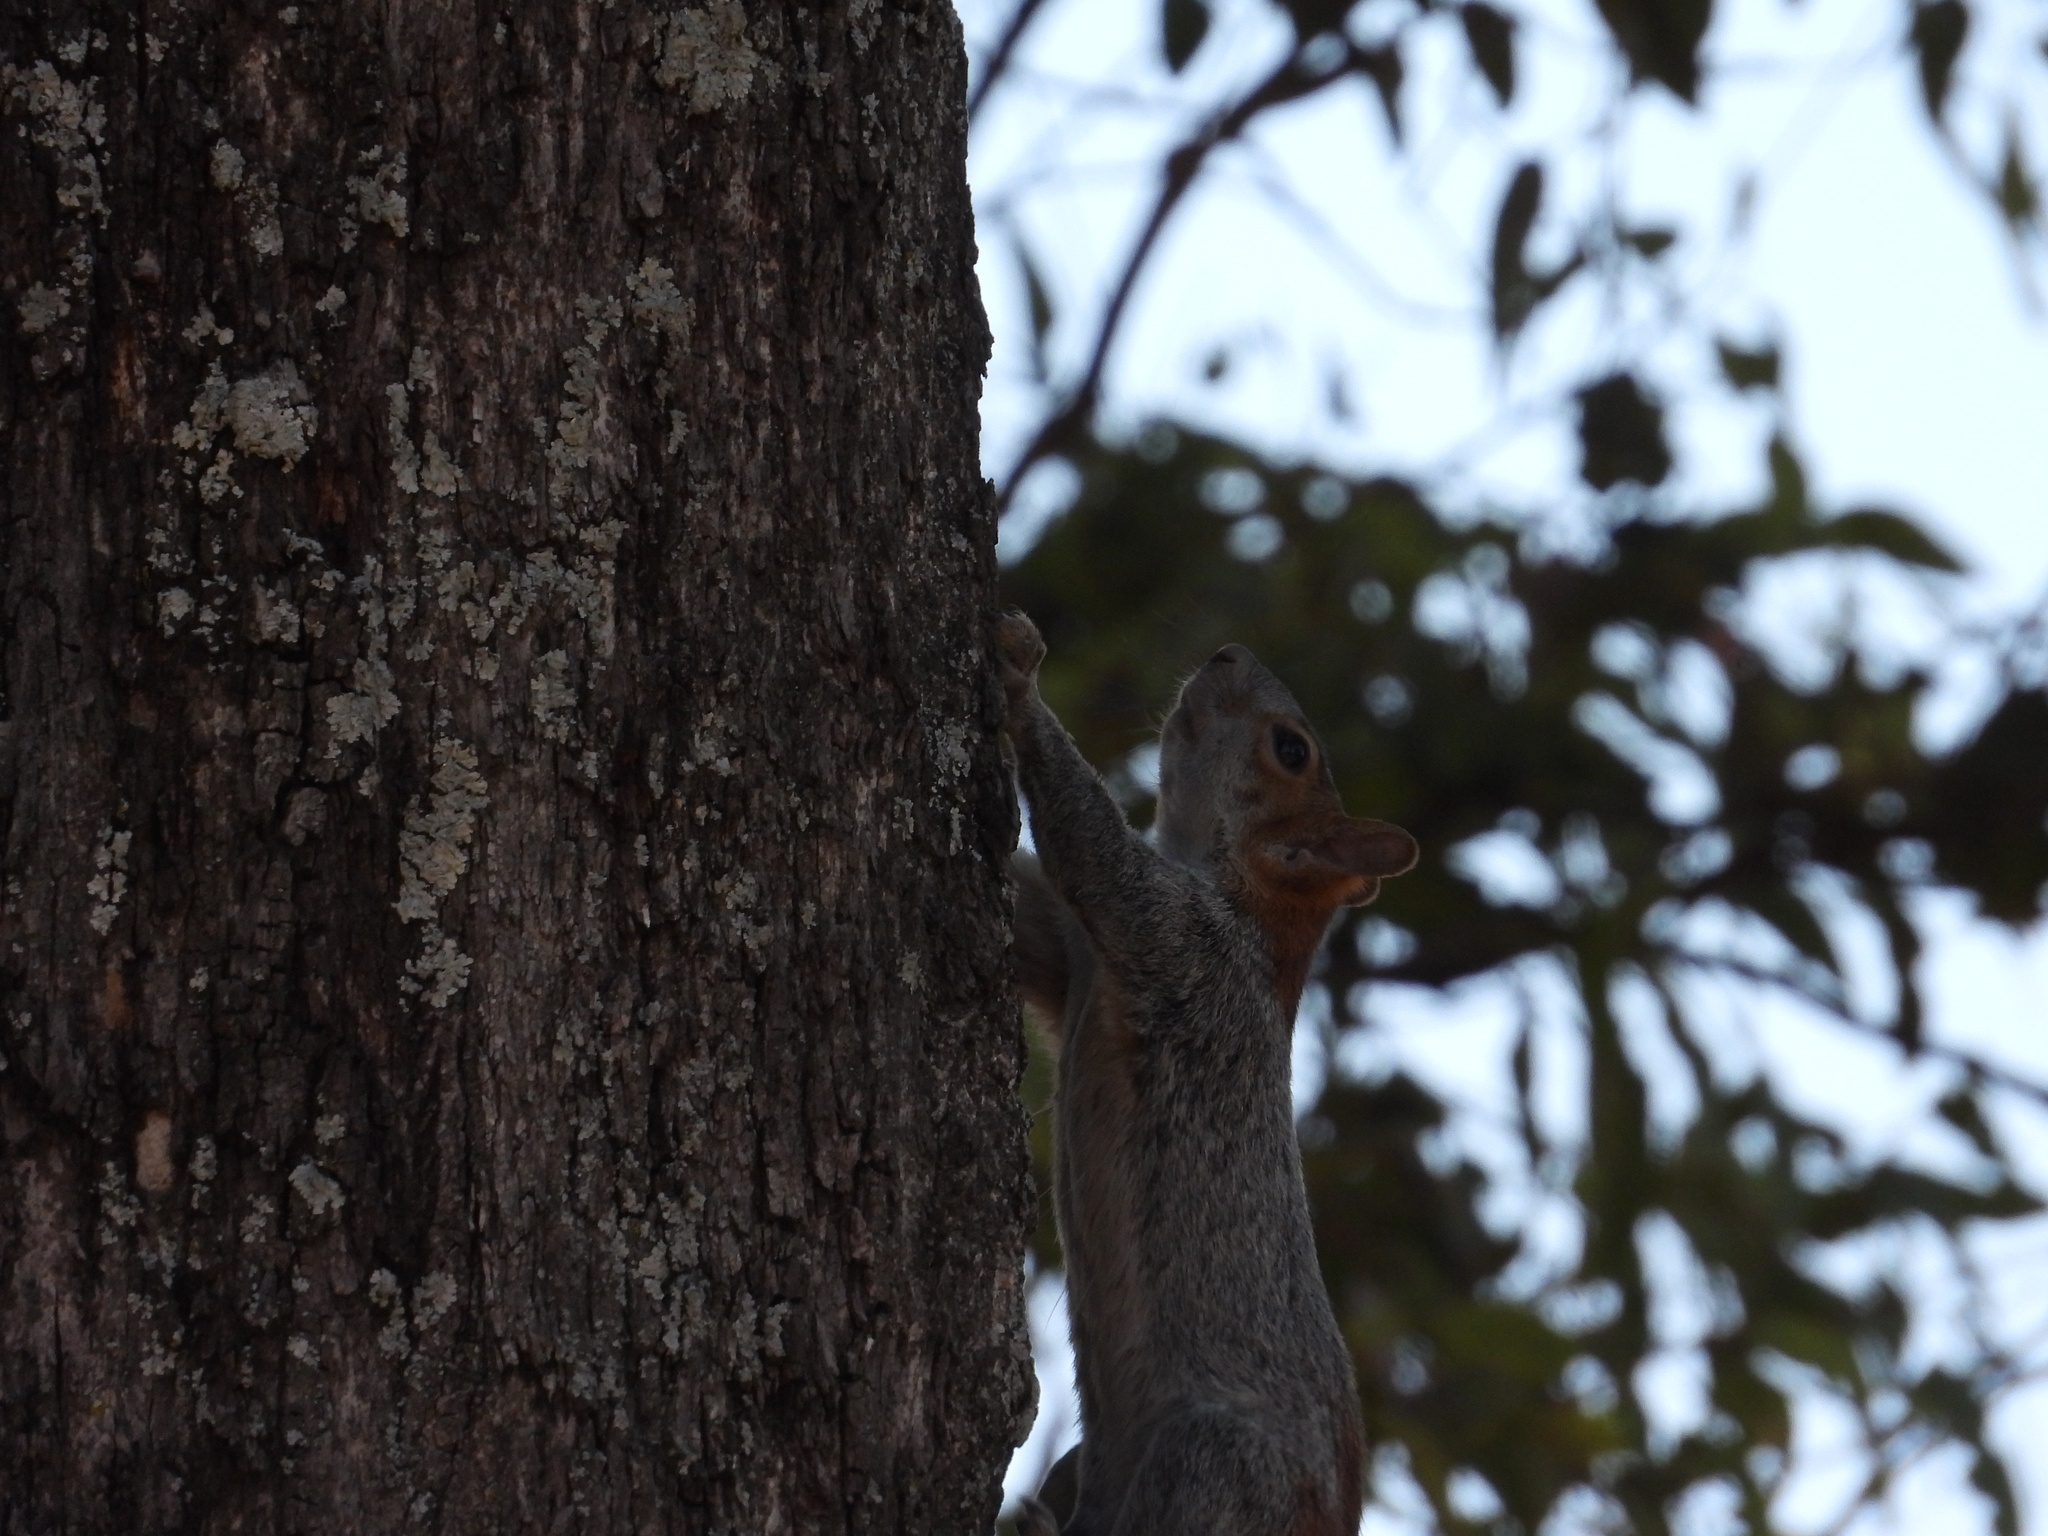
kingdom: Animalia
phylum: Chordata
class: Mammalia
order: Rodentia
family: Sciuridae
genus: Sciurus
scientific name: Sciurus aureogaster
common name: Red-bellied squirrel
